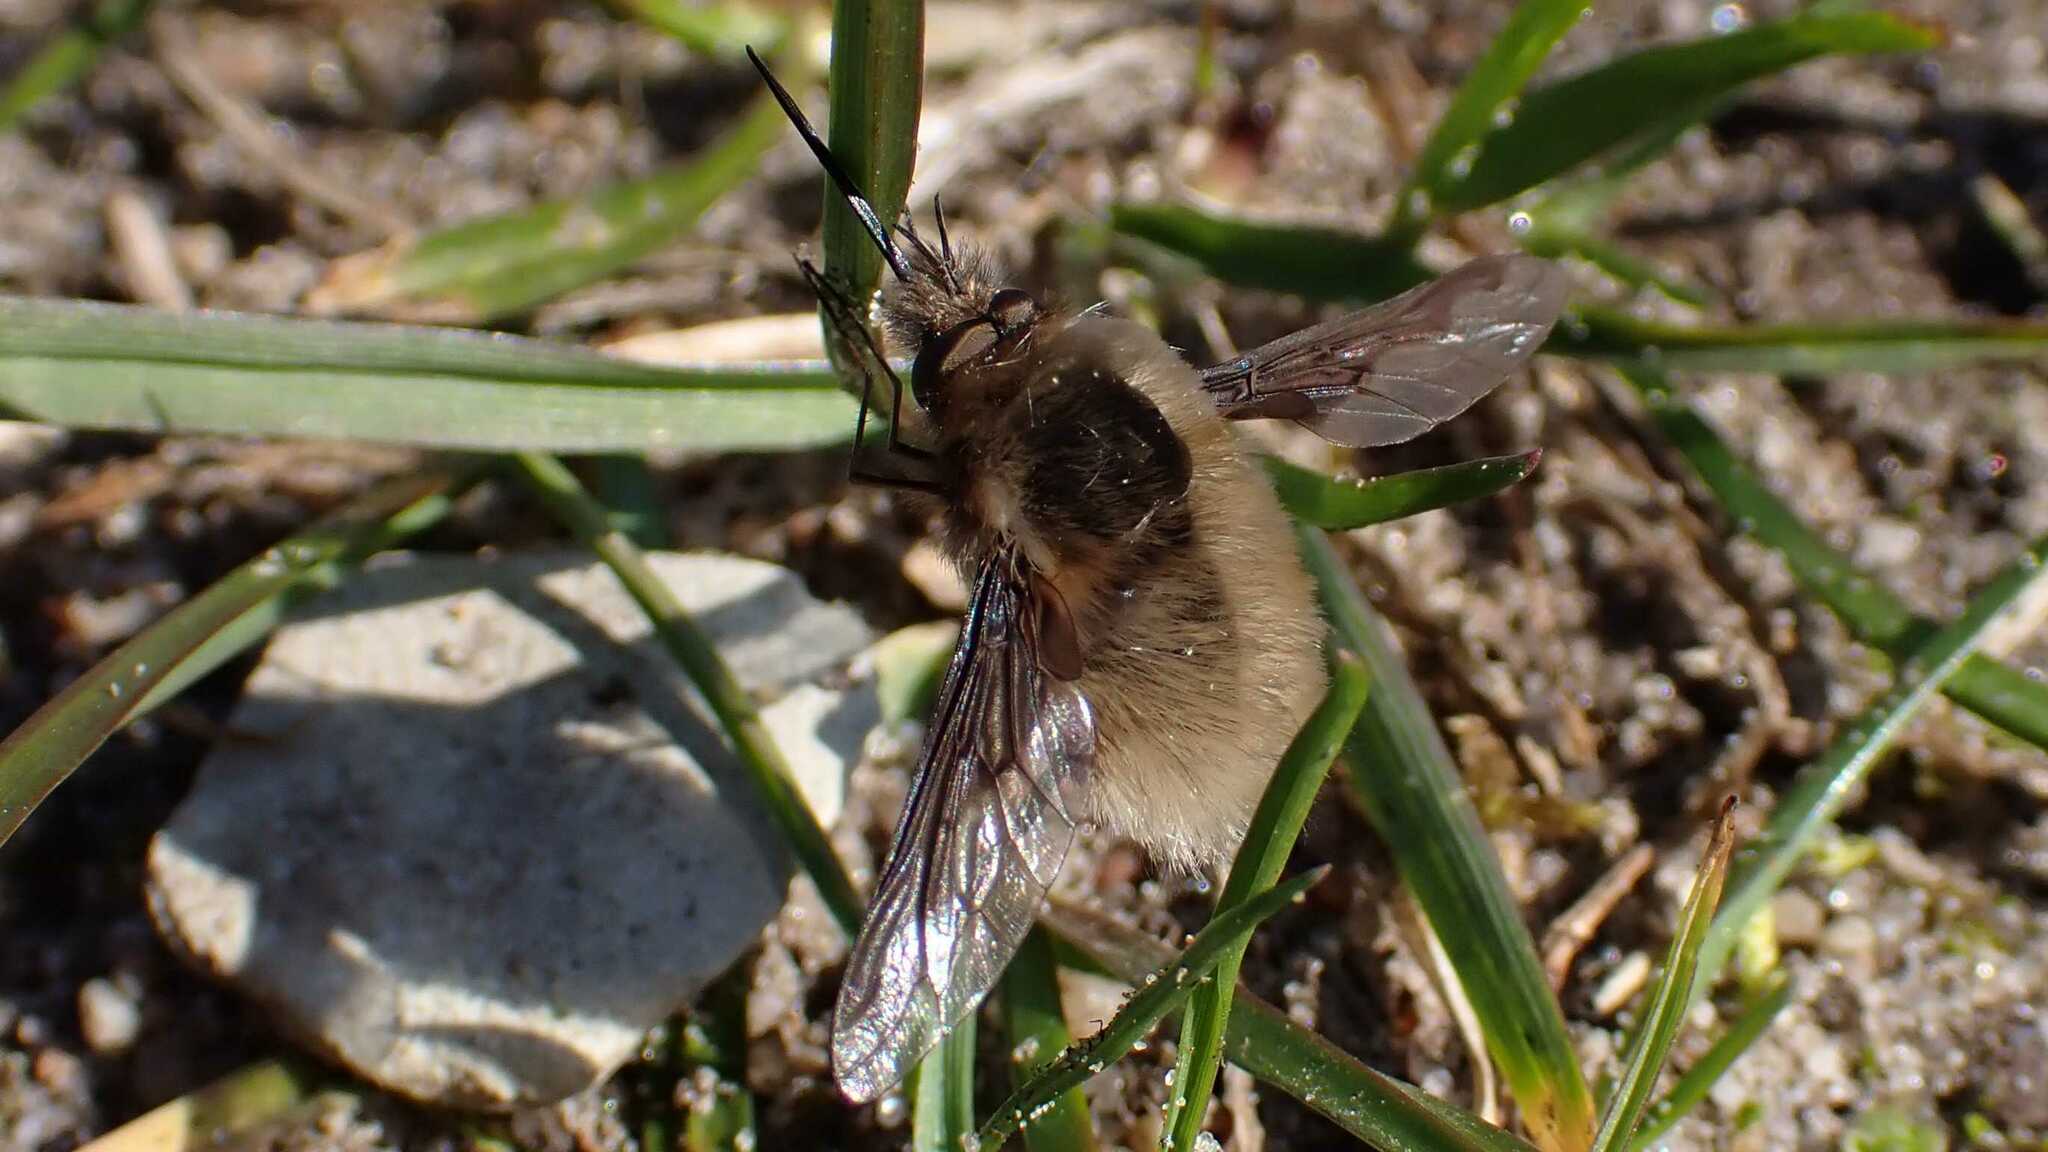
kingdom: Animalia
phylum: Arthropoda
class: Insecta
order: Diptera
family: Bombyliidae
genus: Bombylius
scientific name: Bombylius major
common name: Bee fly
